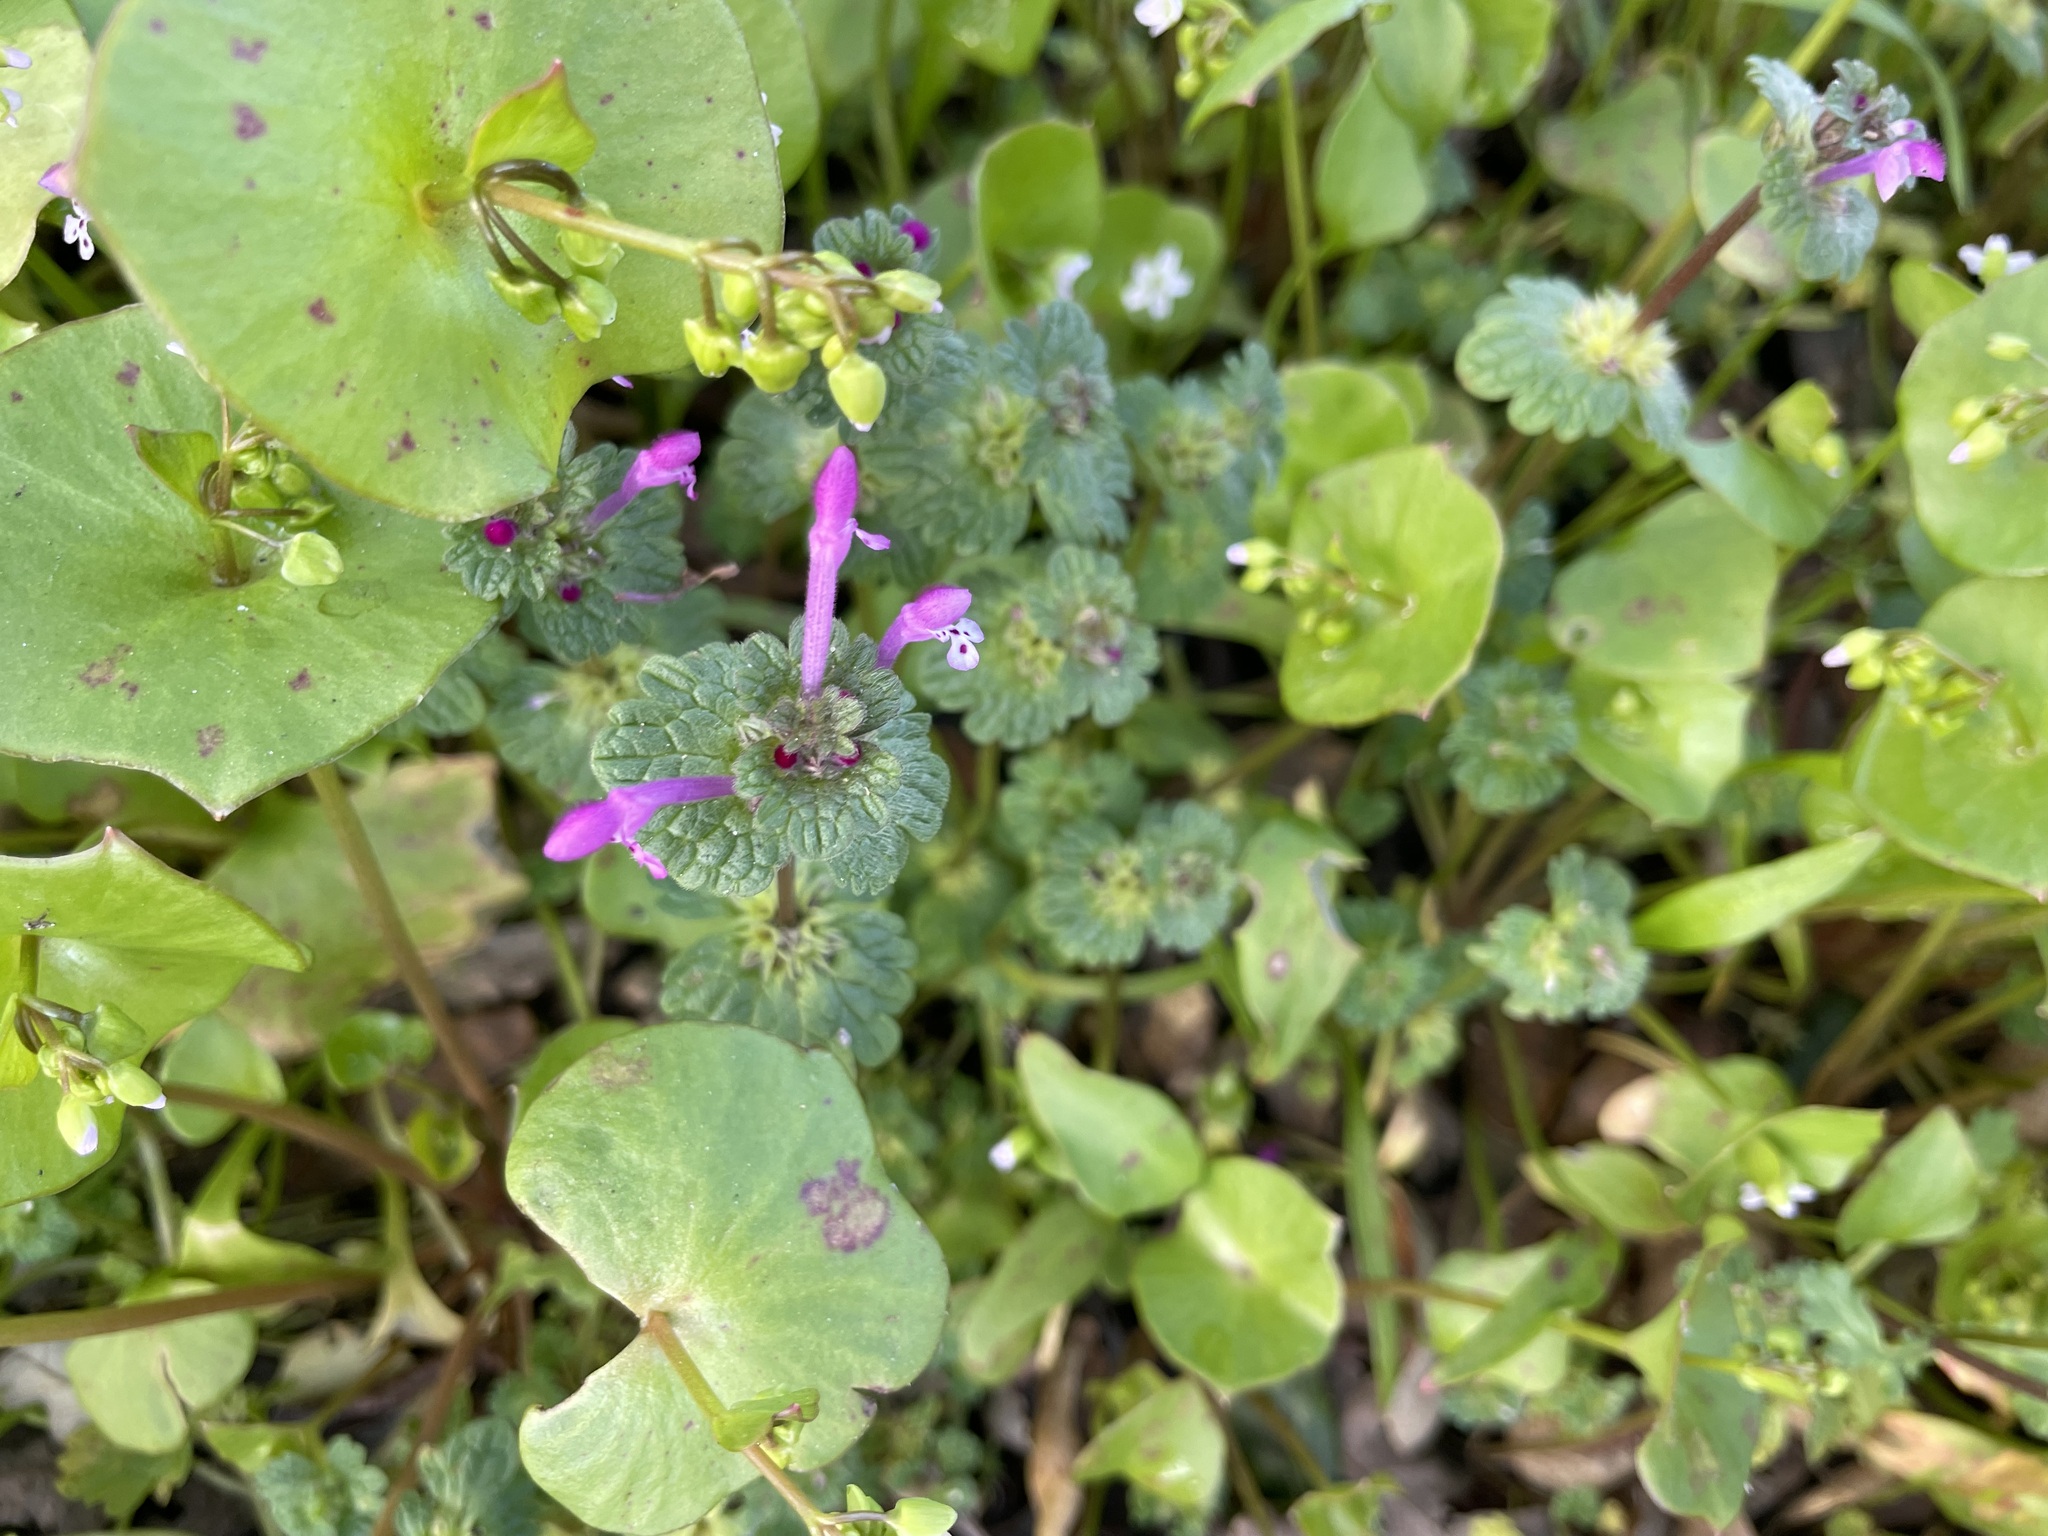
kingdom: Plantae
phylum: Tracheophyta
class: Magnoliopsida
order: Lamiales
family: Lamiaceae
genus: Lamium
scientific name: Lamium amplexicaule
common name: Henbit dead-nettle
